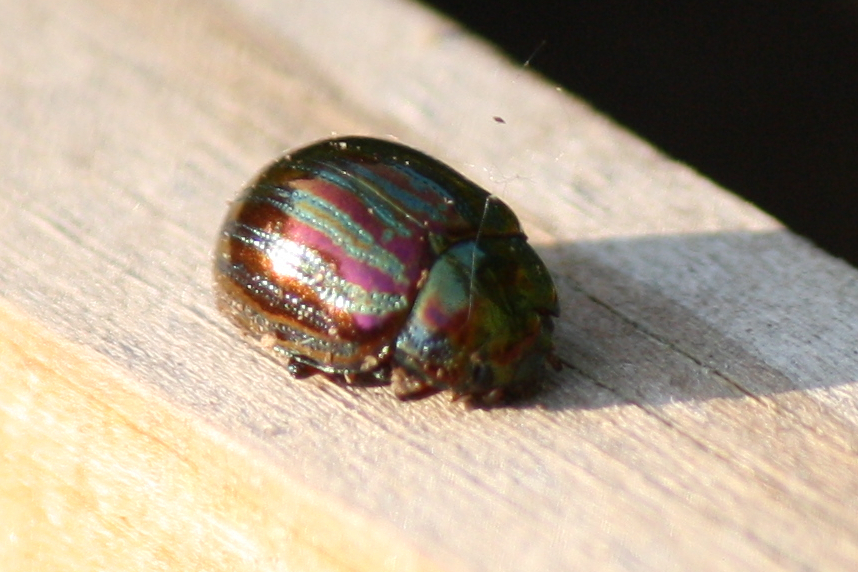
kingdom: Animalia
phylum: Arthropoda
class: Insecta
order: Coleoptera
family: Chrysomelidae
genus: Chrysolina
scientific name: Chrysolina americana
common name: Rosemary beetle
